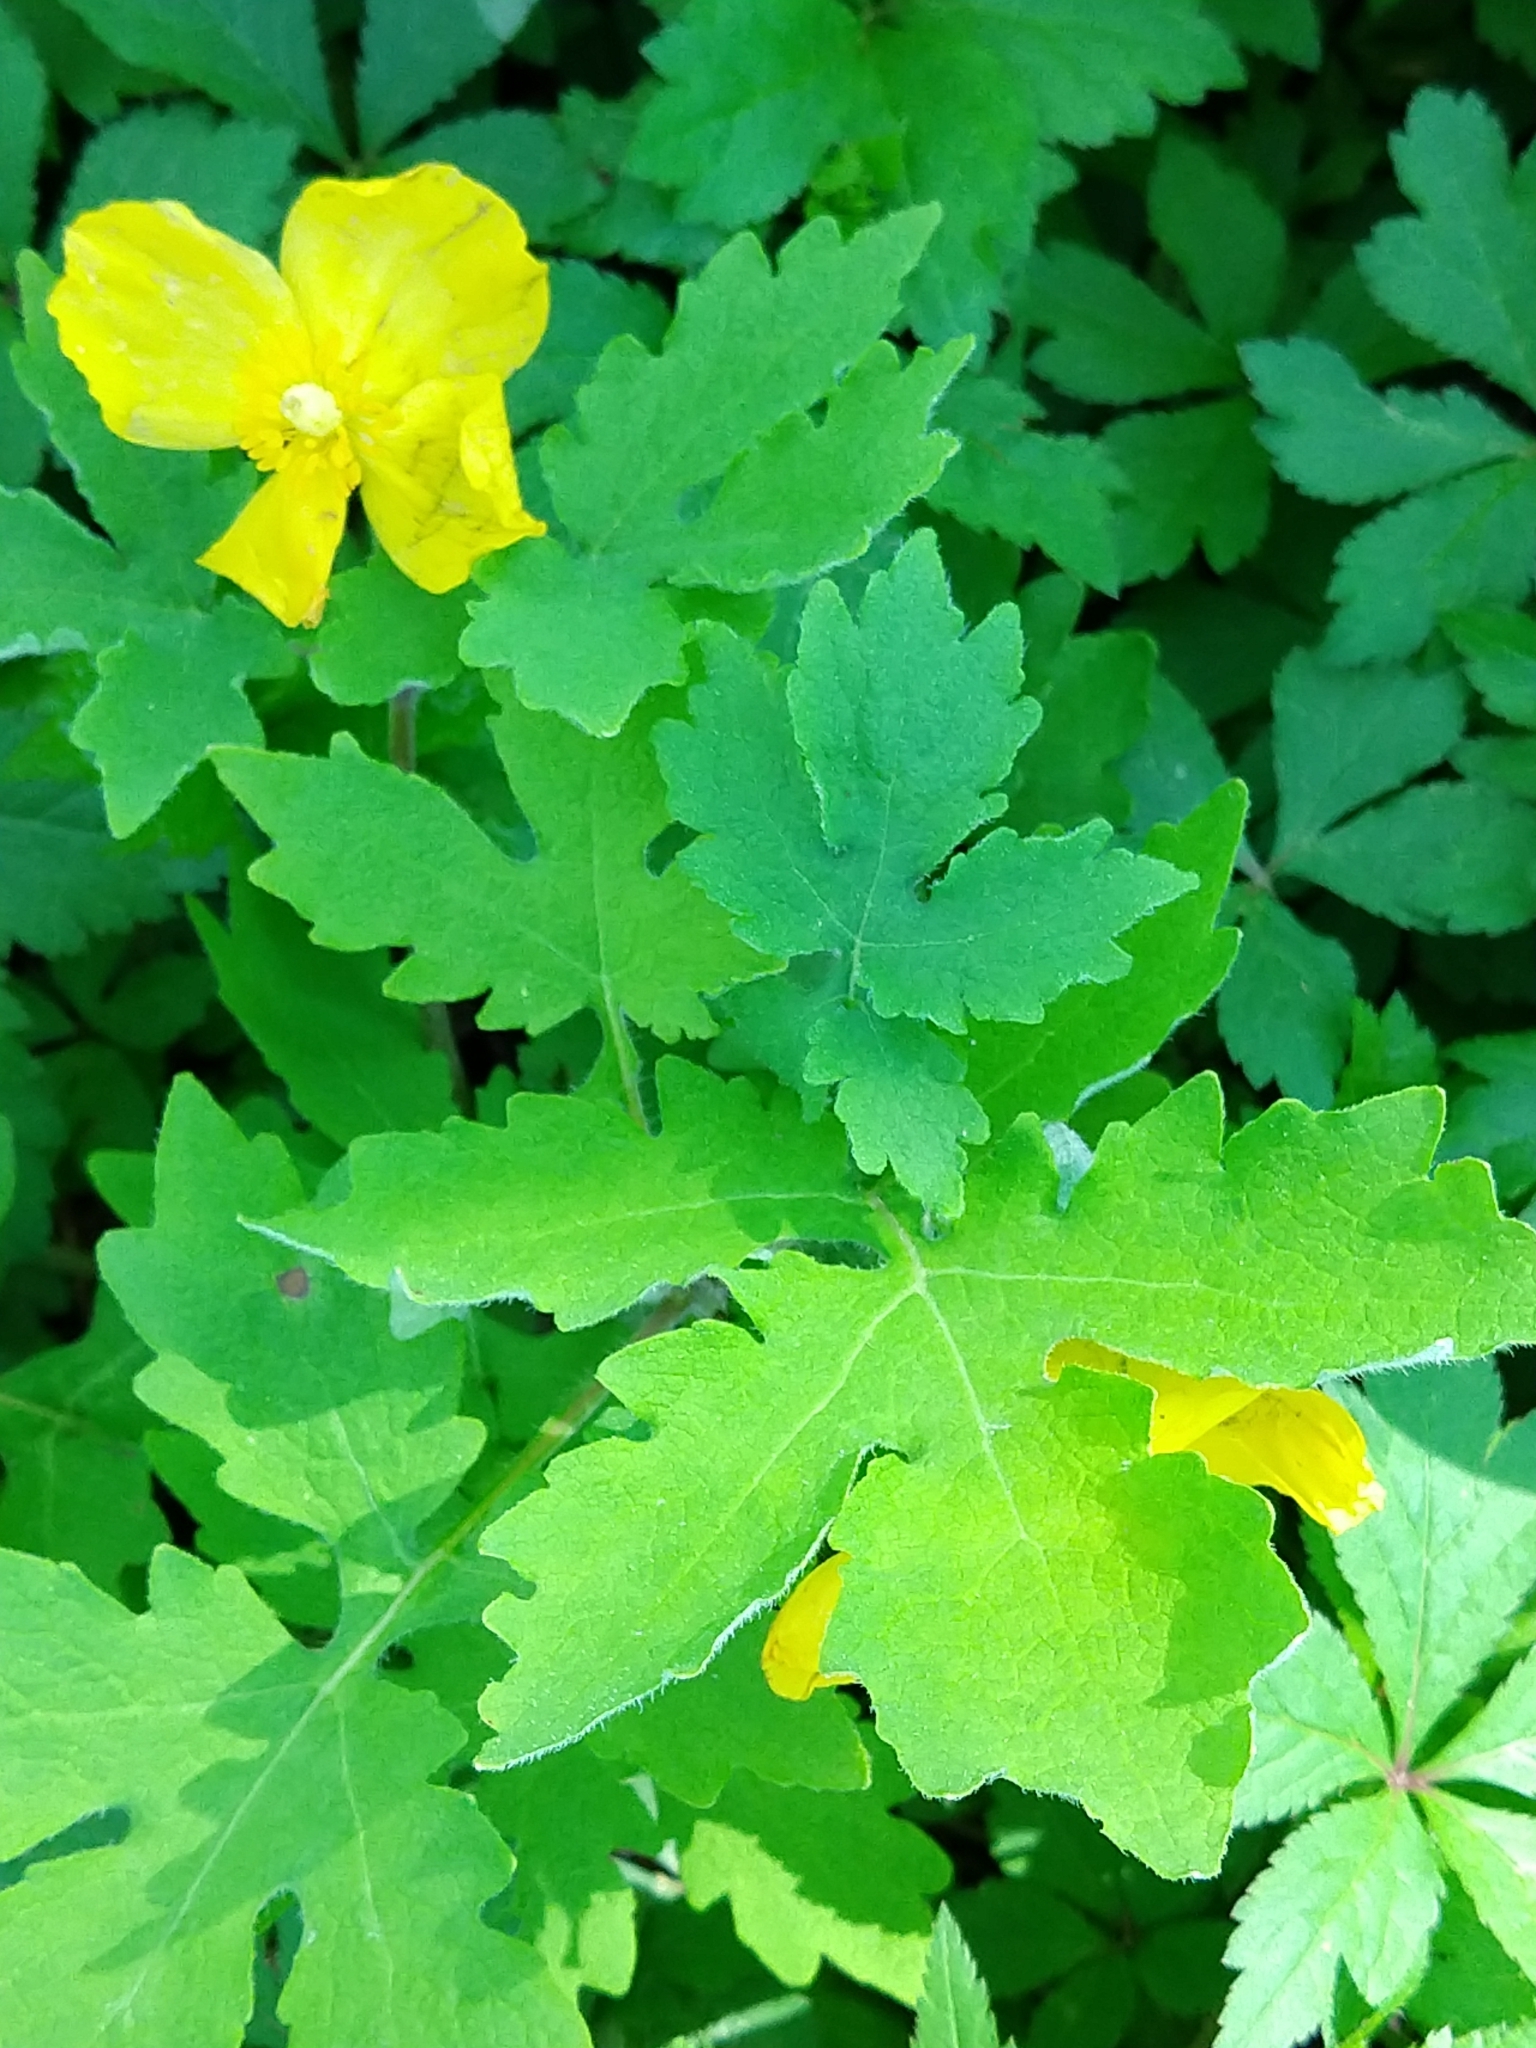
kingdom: Plantae
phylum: Tracheophyta
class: Magnoliopsida
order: Ranunculales
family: Papaveraceae
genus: Stylophorum
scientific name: Stylophorum diphyllum
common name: Celandine poppy
